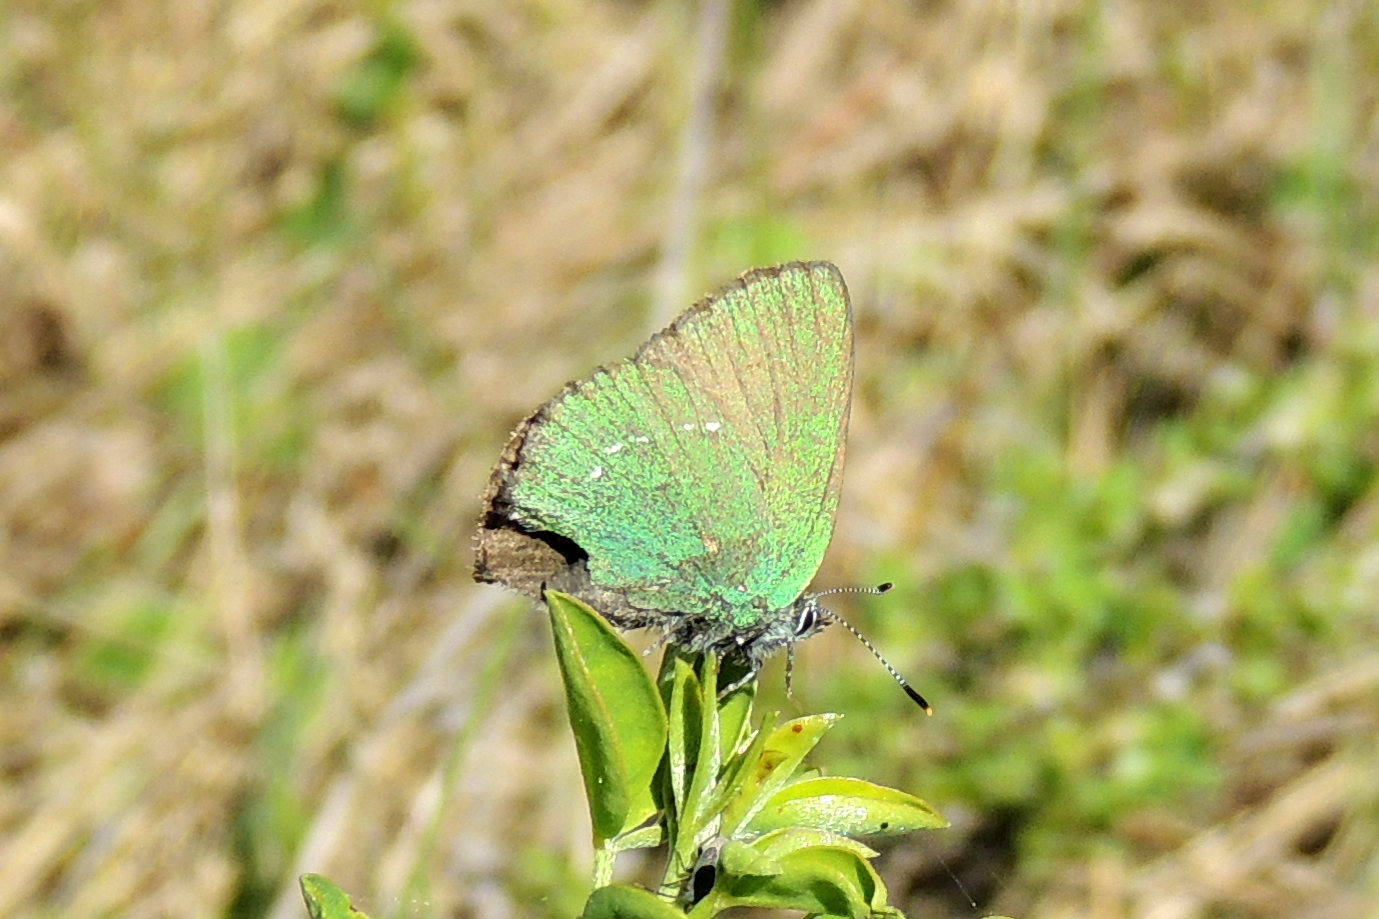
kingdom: Animalia
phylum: Arthropoda
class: Insecta
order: Lepidoptera
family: Lycaenidae
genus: Callophrys
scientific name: Callophrys rubi
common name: Green hairstreak
